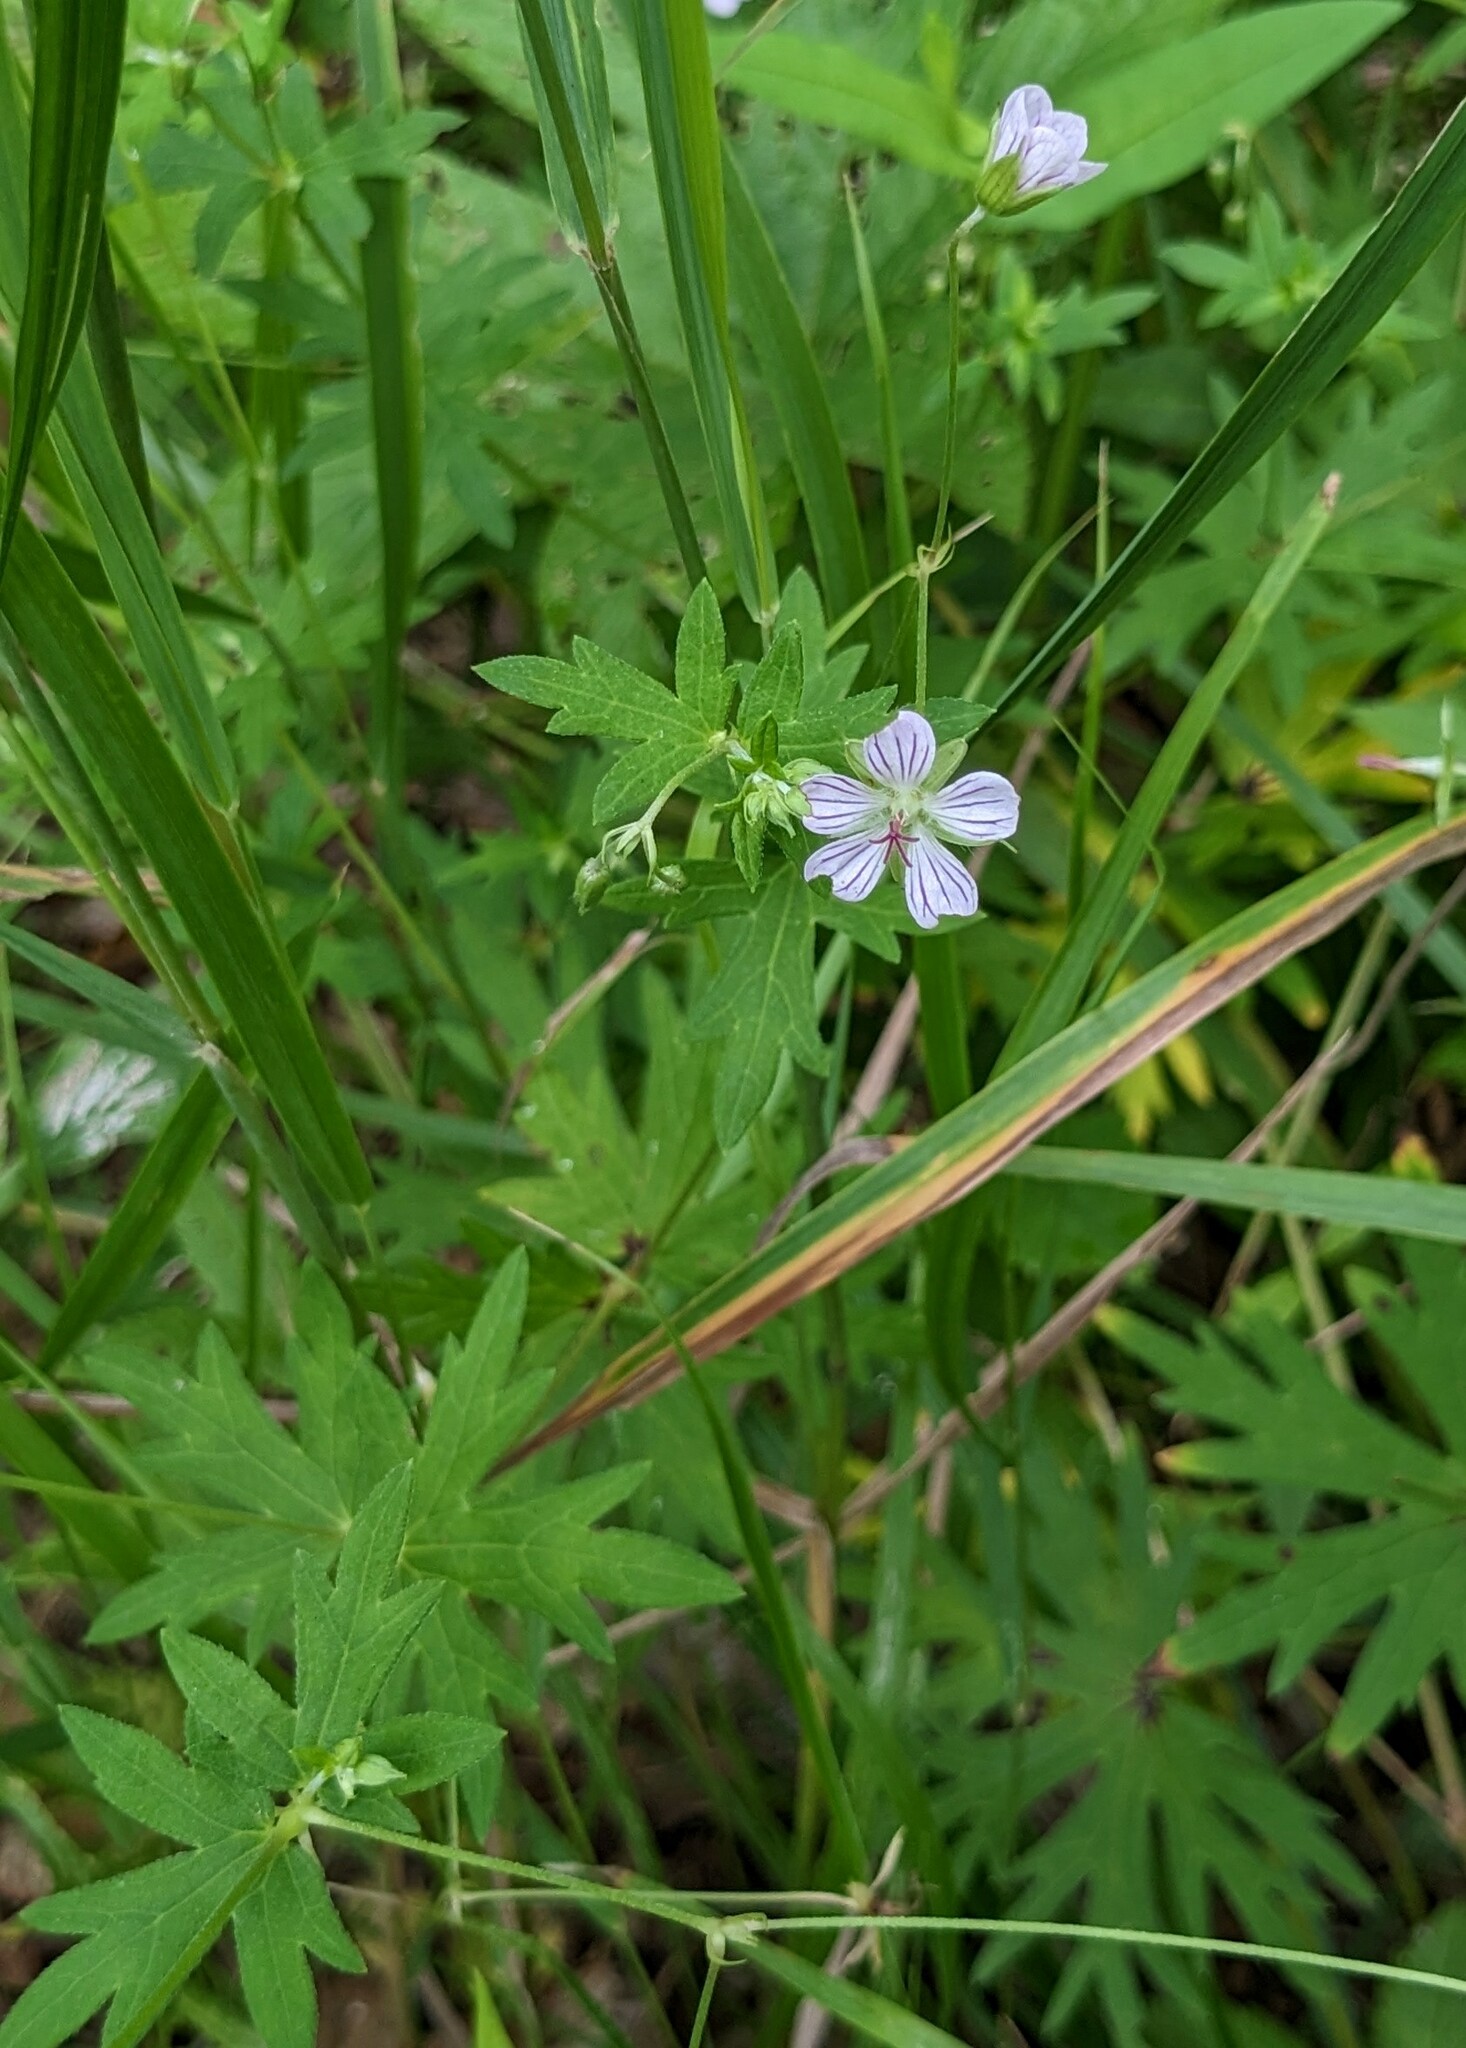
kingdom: Plantae
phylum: Tracheophyta
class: Magnoliopsida
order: Geraniales
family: Geraniaceae
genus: Geranium
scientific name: Geranium dahuricum
